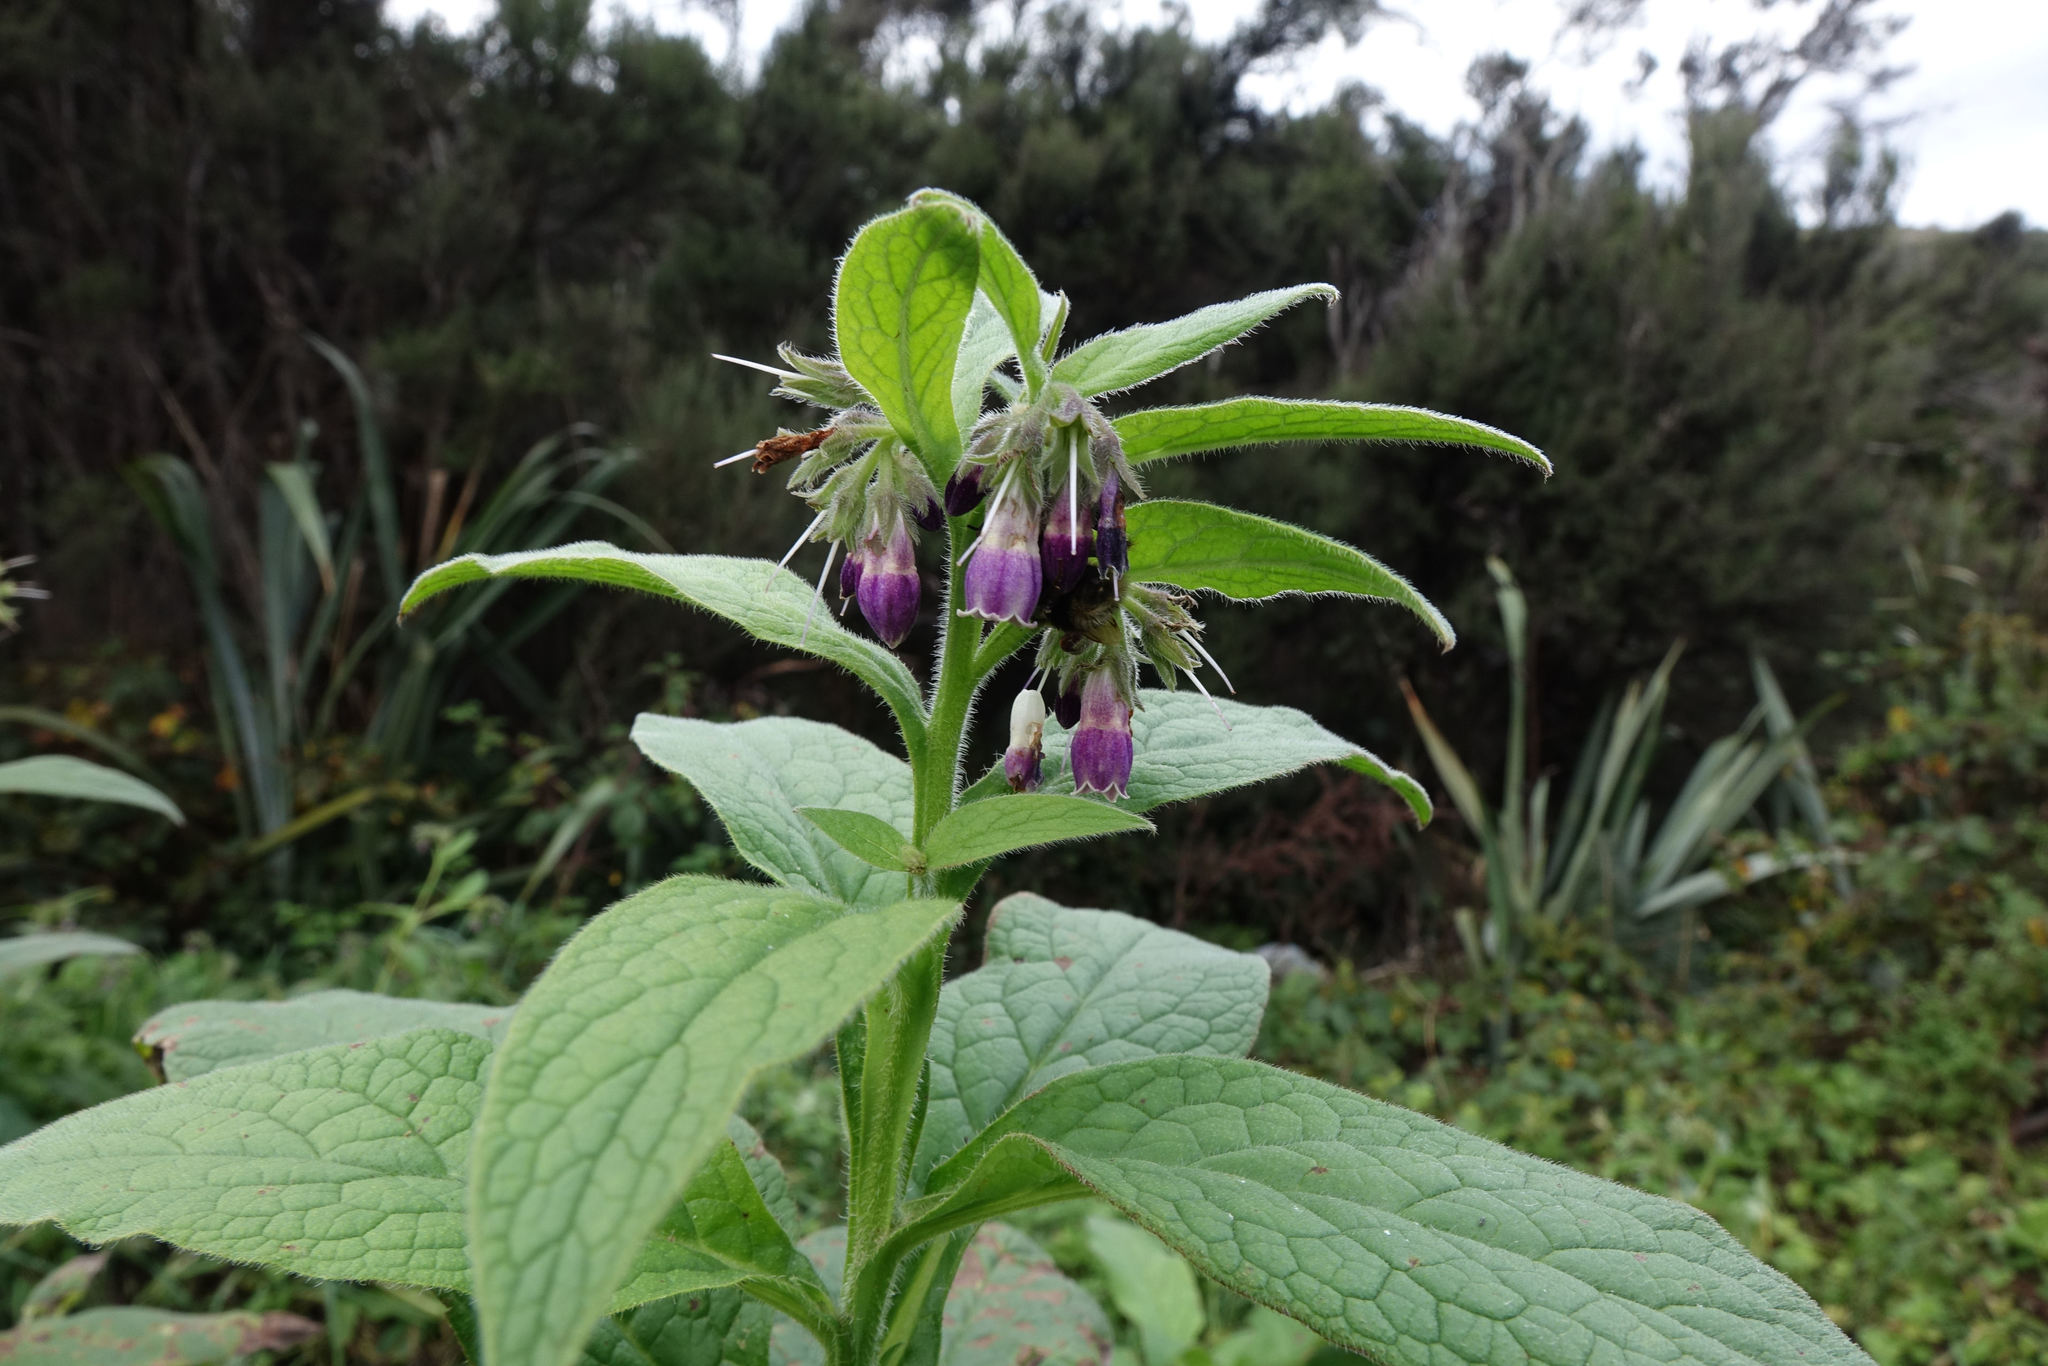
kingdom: Plantae
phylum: Tracheophyta
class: Magnoliopsida
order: Boraginales
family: Boraginaceae
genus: Symphytum
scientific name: Symphytum uplandicum
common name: Russian comfrey
